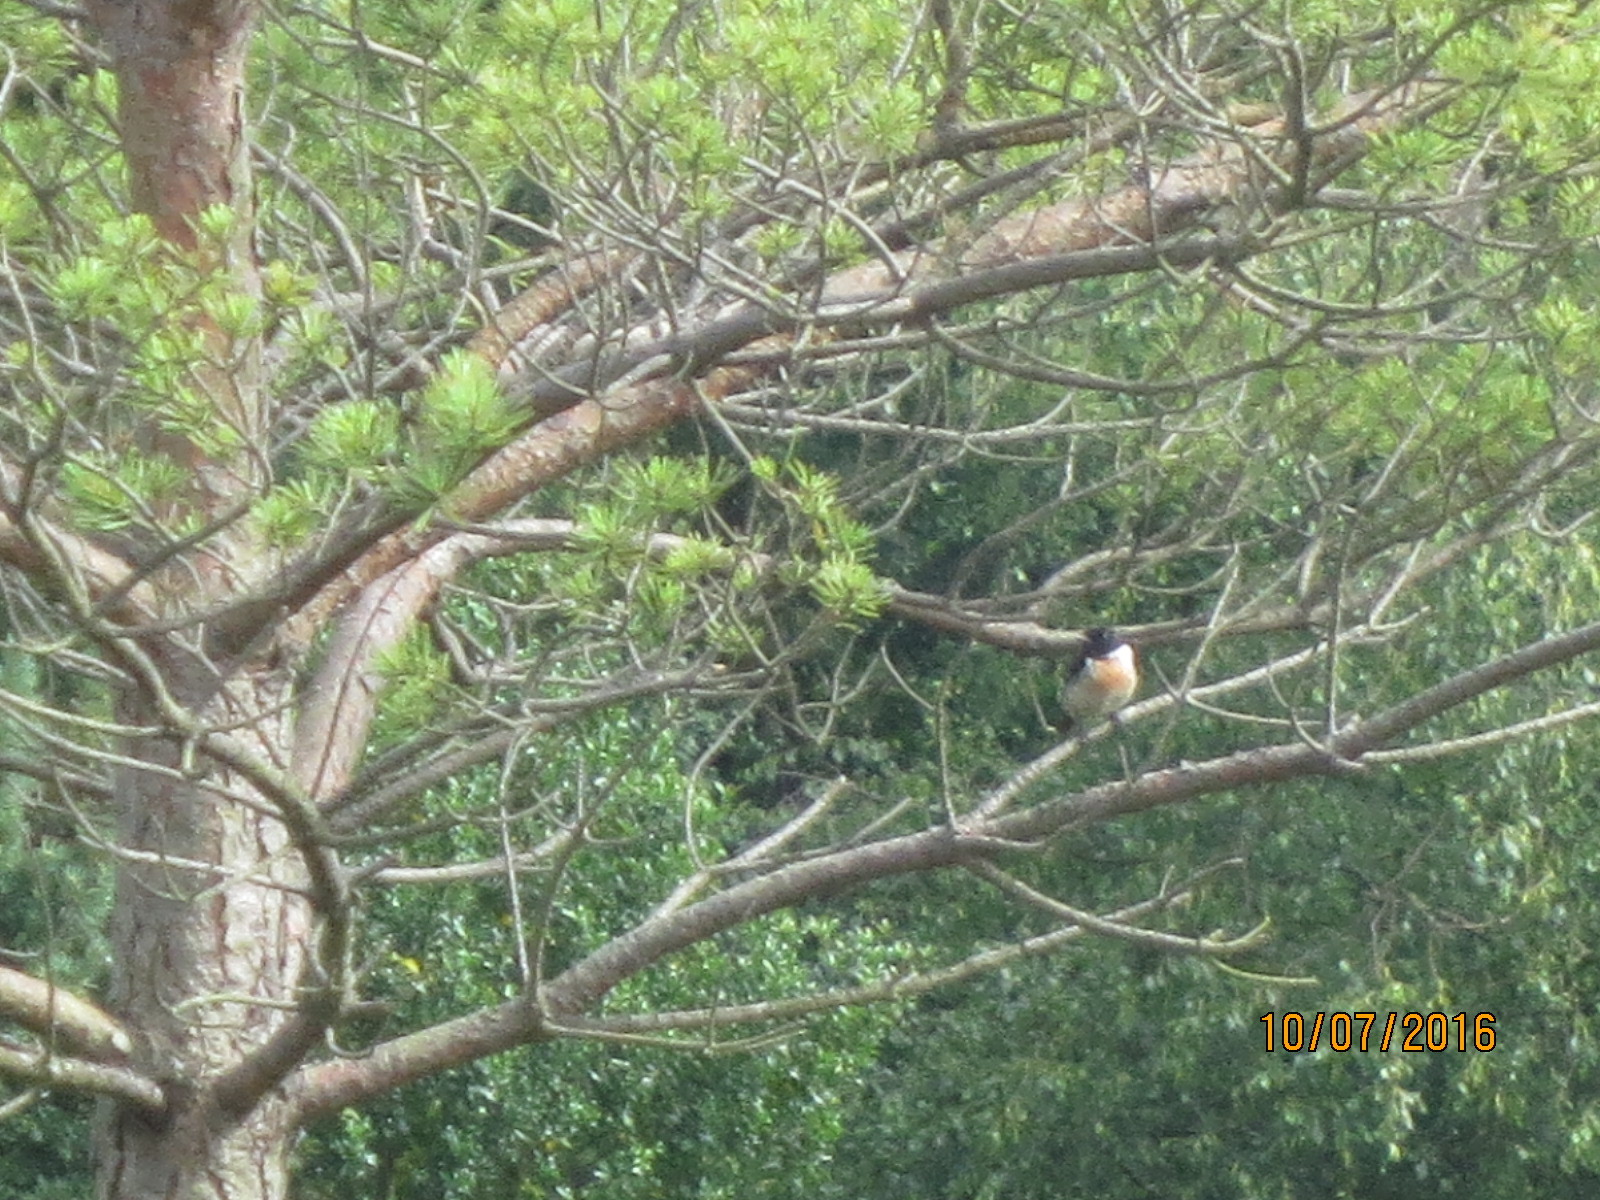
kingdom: Animalia
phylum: Chordata
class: Aves
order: Passeriformes
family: Muscicapidae
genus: Saxicola
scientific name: Saxicola rubicola
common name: European stonechat
